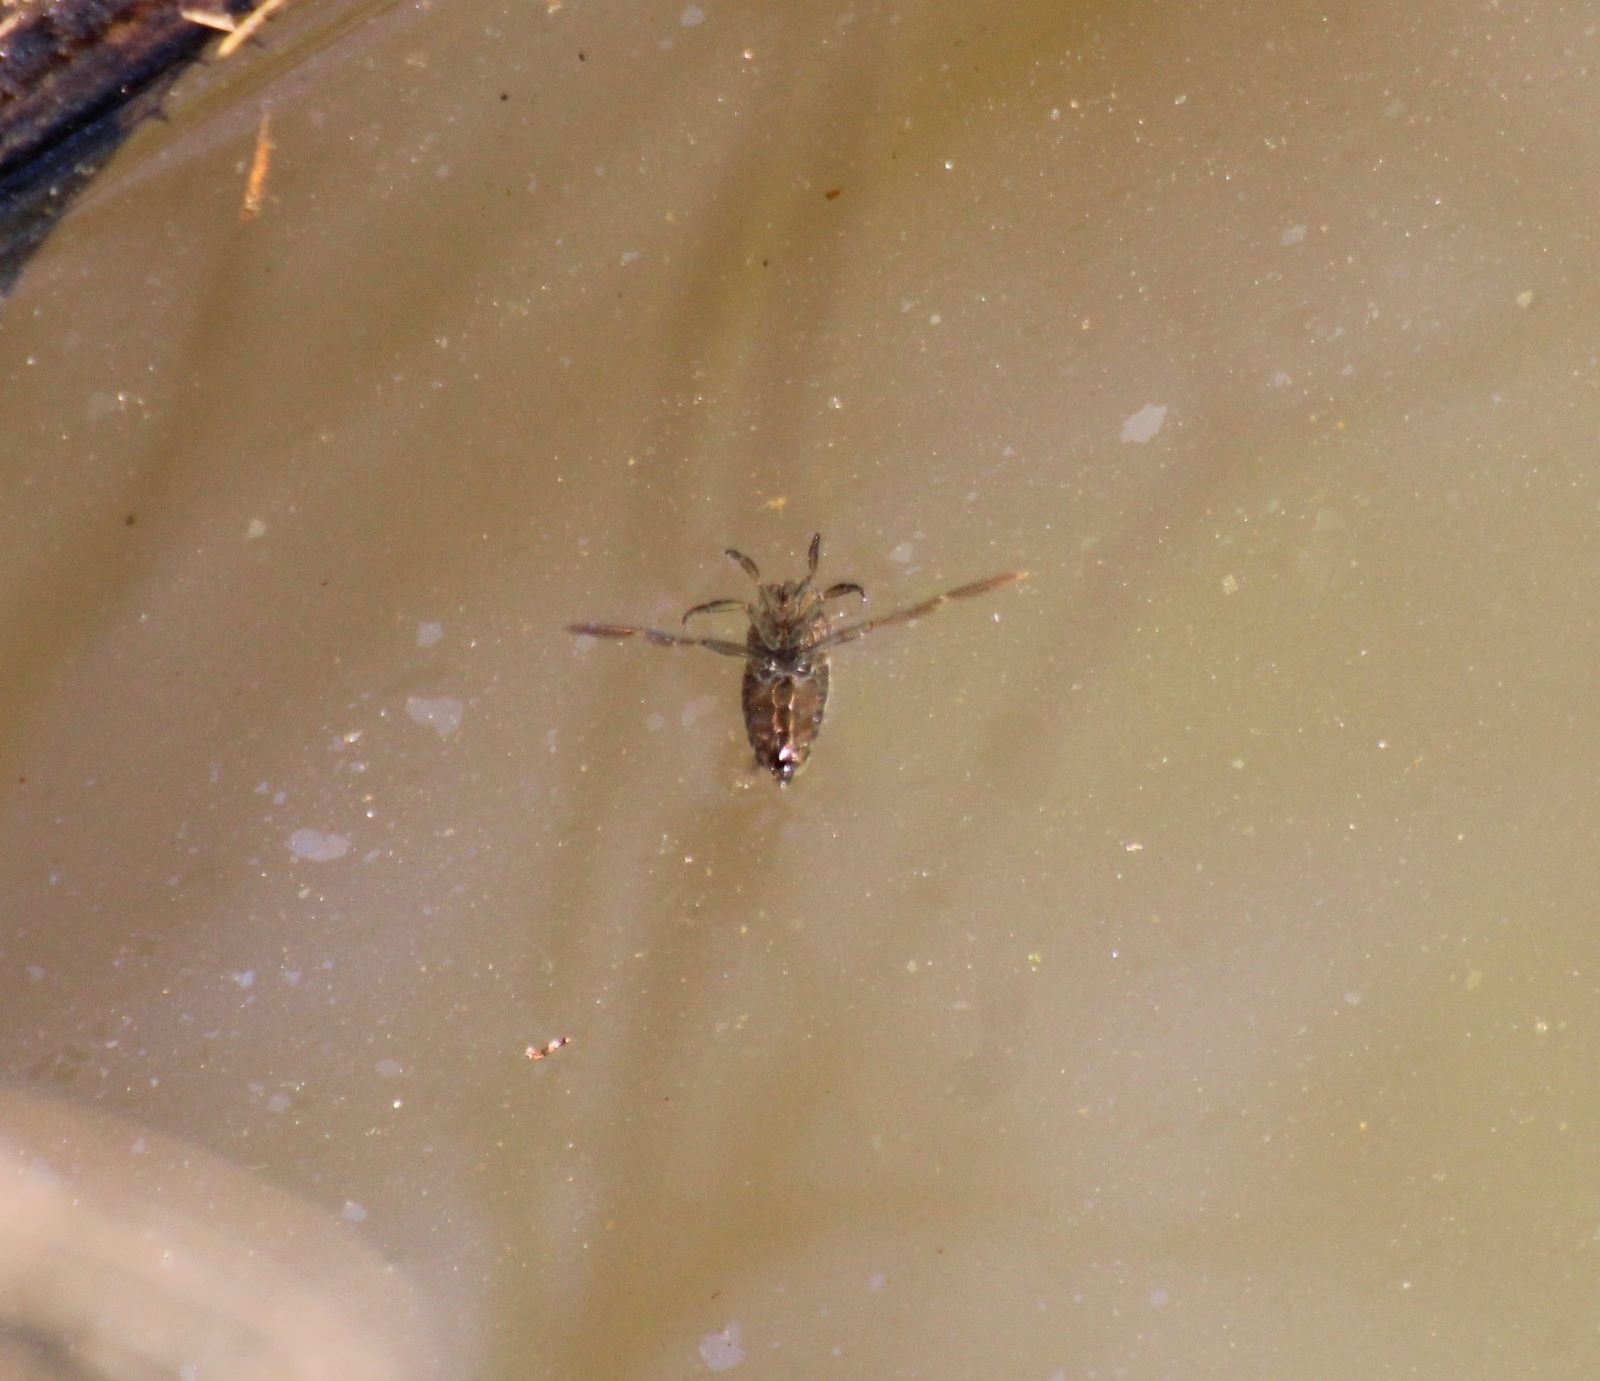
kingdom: Animalia
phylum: Arthropoda
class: Insecta
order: Hemiptera
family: Notonectidae
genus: Notonecta
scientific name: Notonecta
